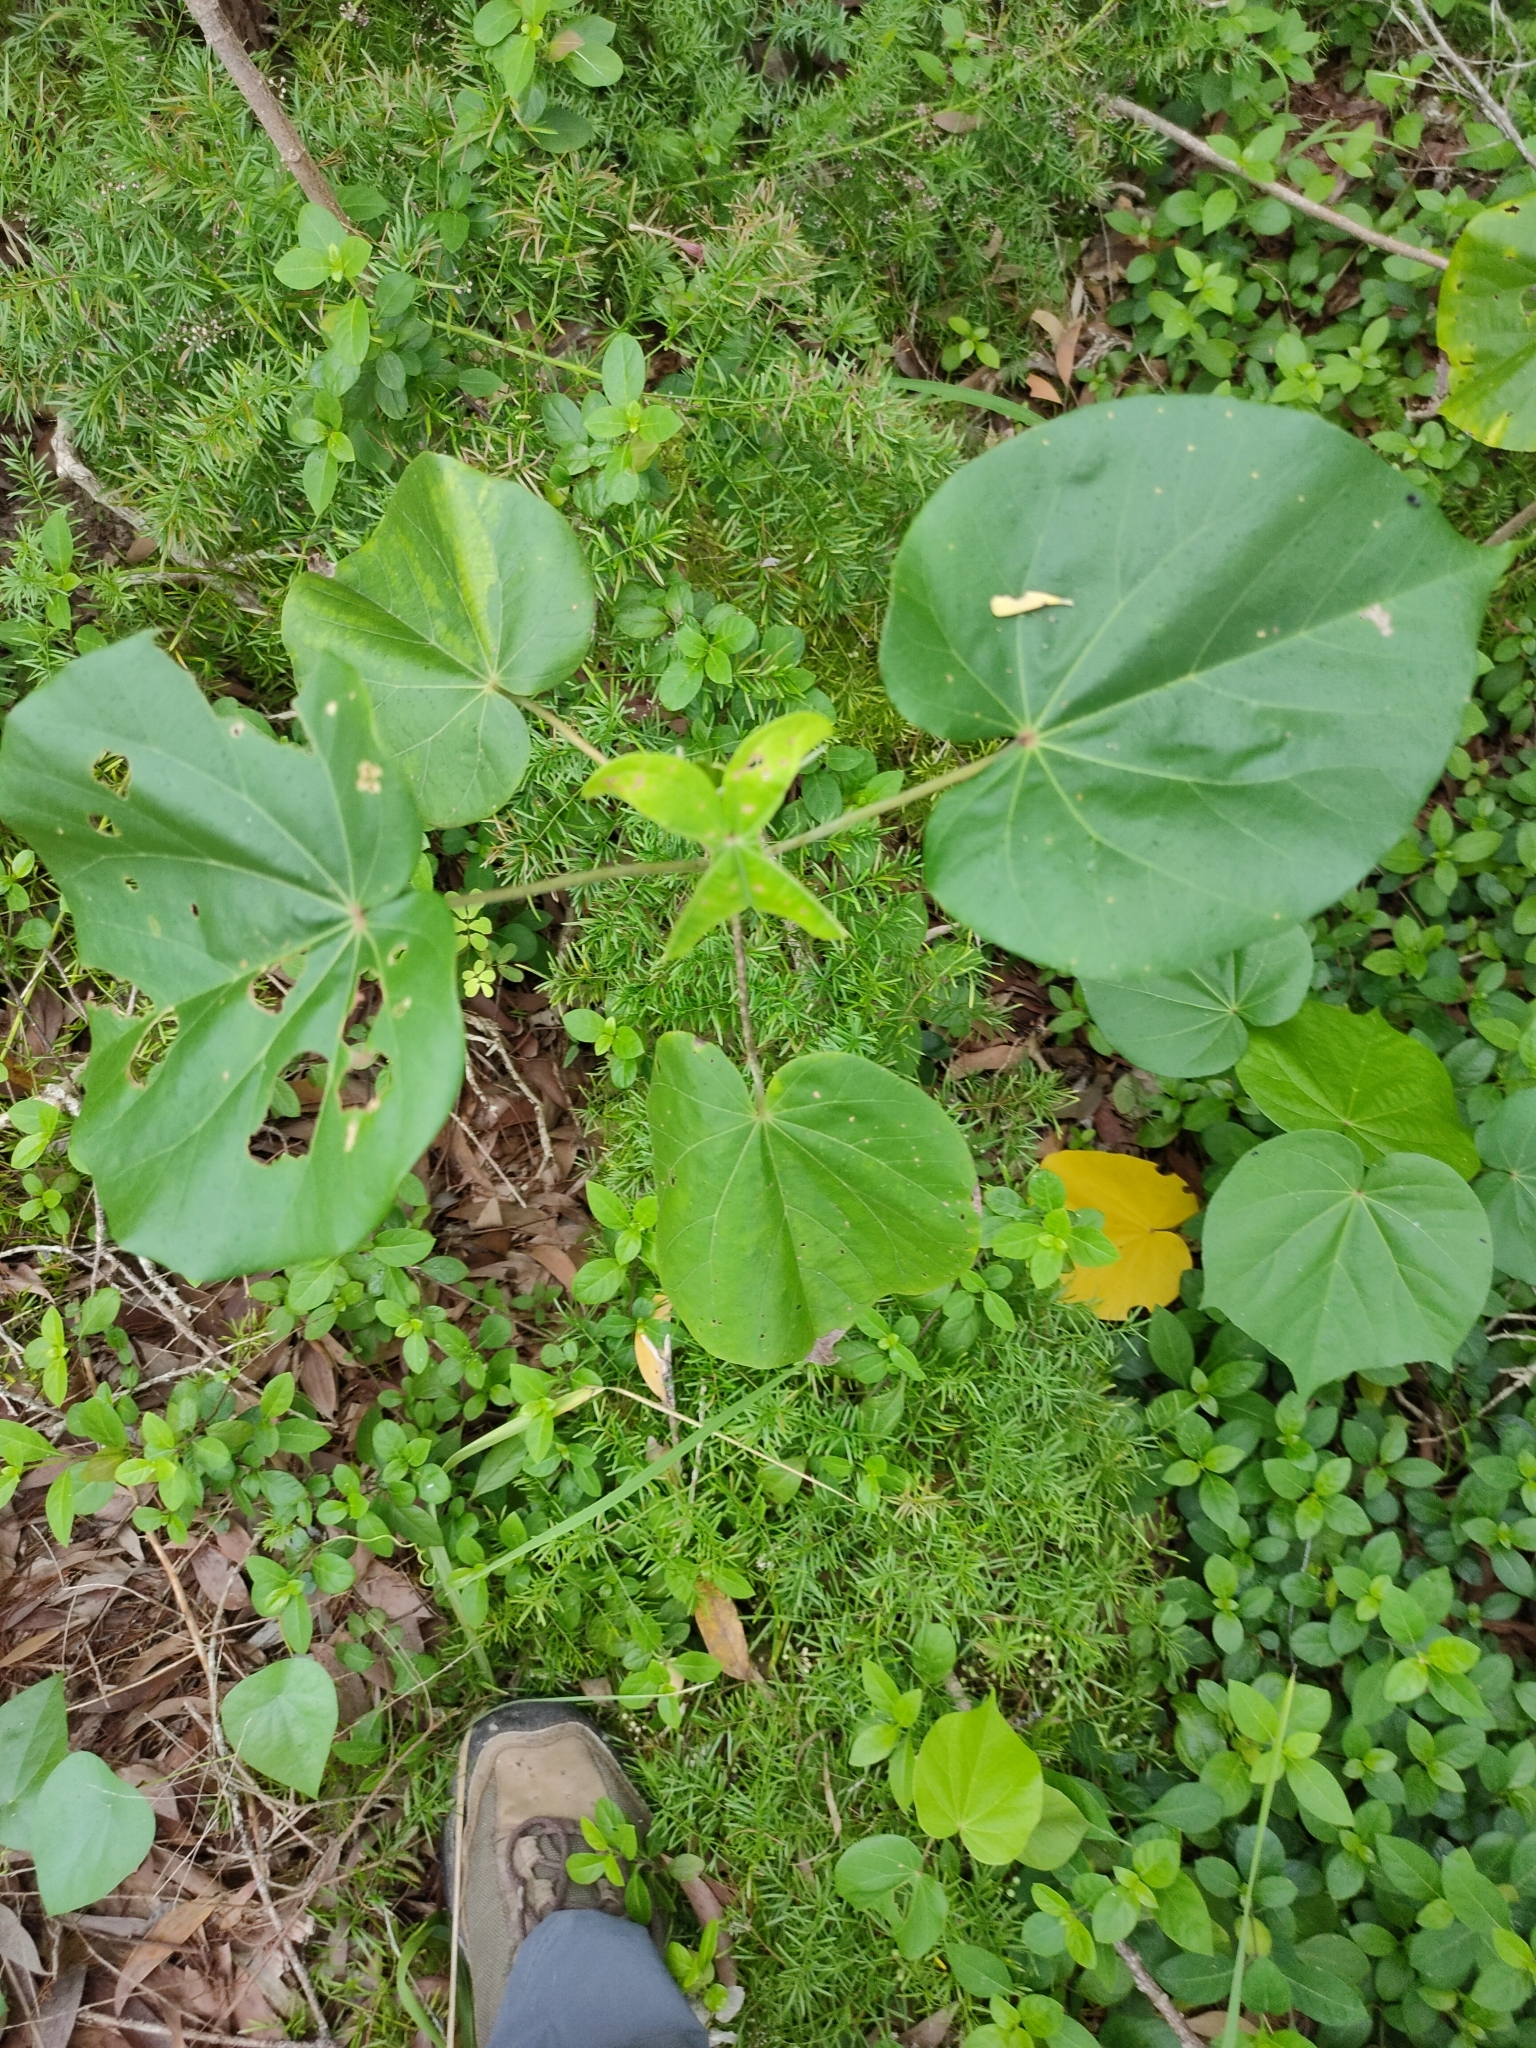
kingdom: Plantae
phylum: Tracheophyta
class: Magnoliopsida
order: Malvales
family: Malvaceae
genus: Talipariti
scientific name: Talipariti tiliaceum
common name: Sea hibiscus
